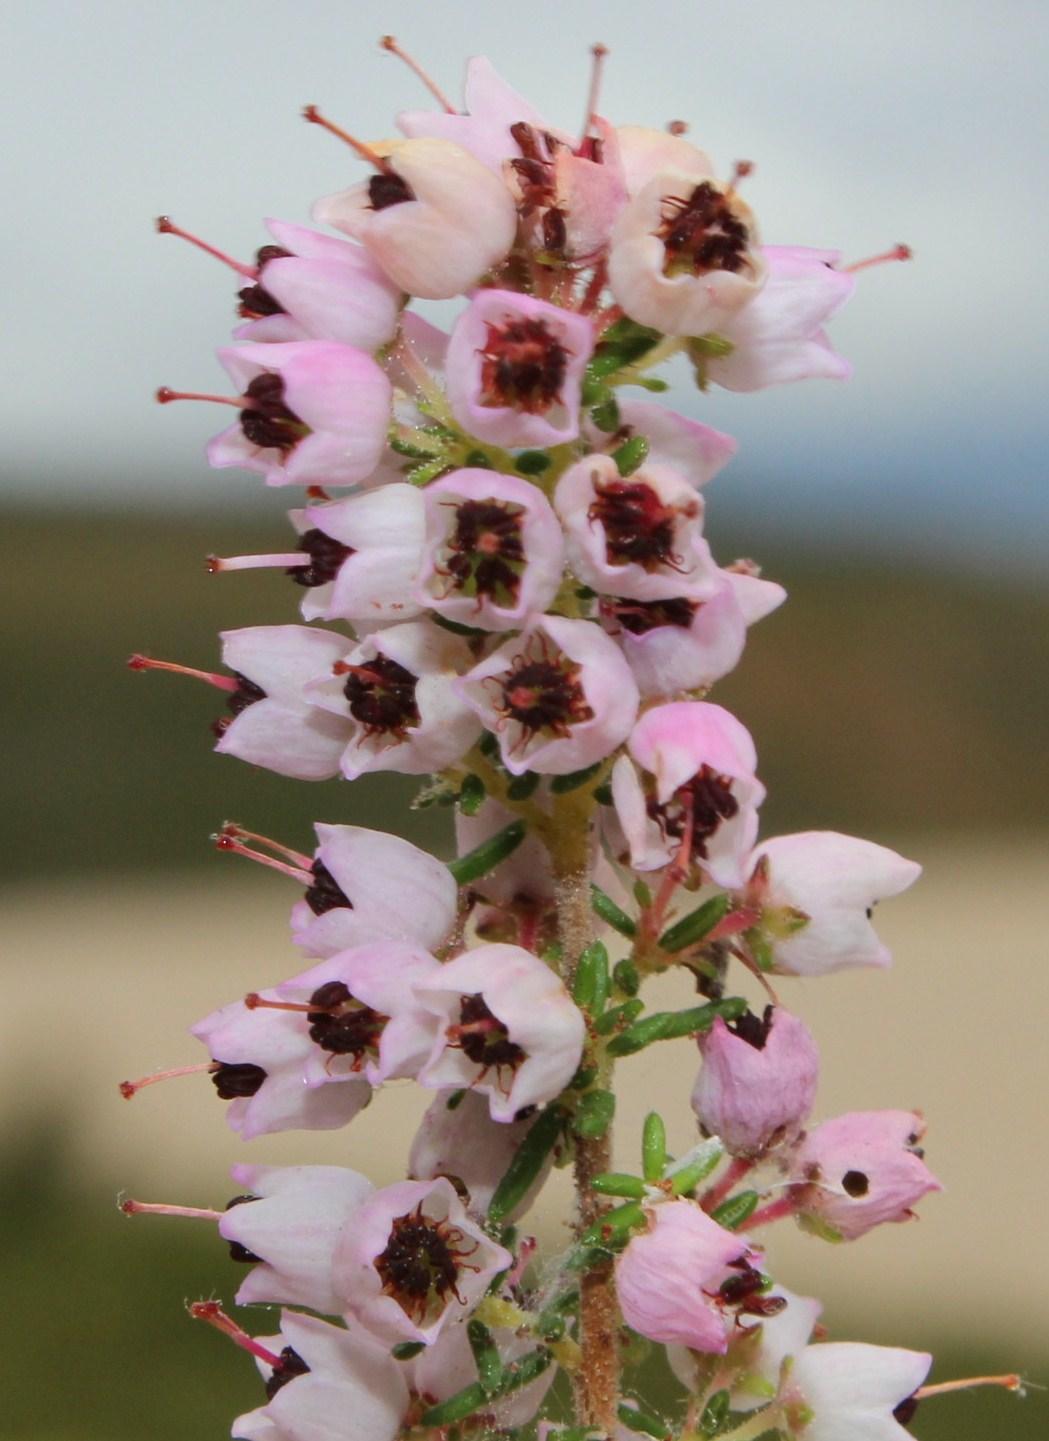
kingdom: Plantae
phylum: Tracheophyta
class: Magnoliopsida
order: Ericales
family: Ericaceae
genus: Erica
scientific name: Erica bicolor
